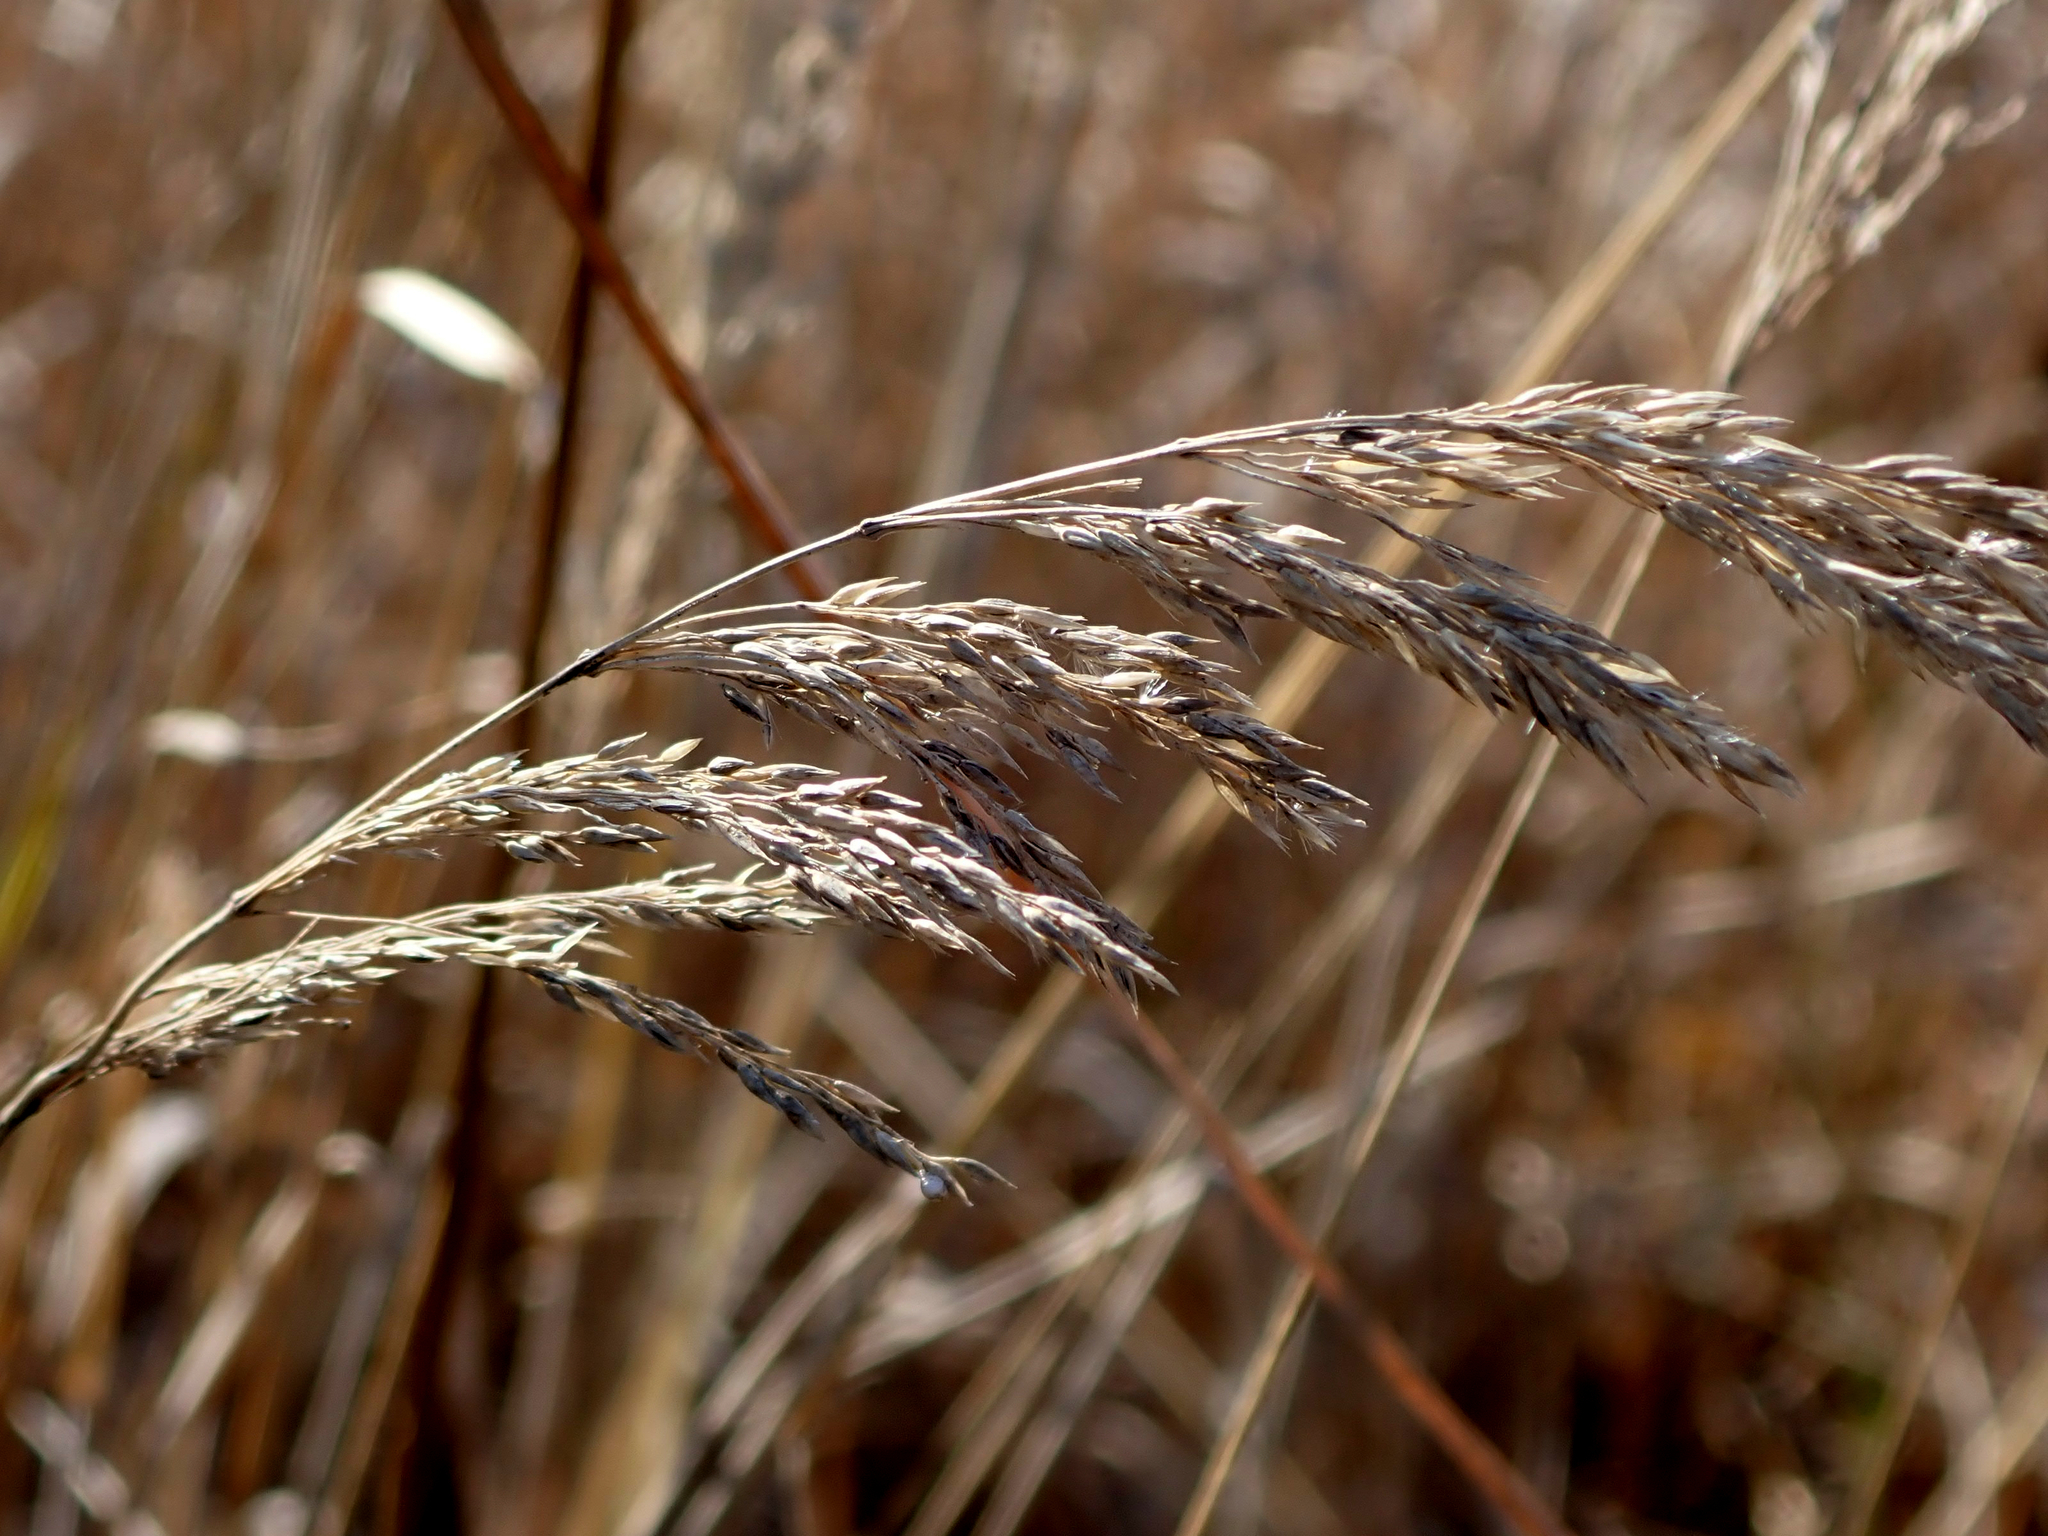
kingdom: Plantae
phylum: Tracheophyta
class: Liliopsida
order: Poales
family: Poaceae
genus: Calamagrostis
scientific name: Calamagrostis canadensis
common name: Canada bluejoint
